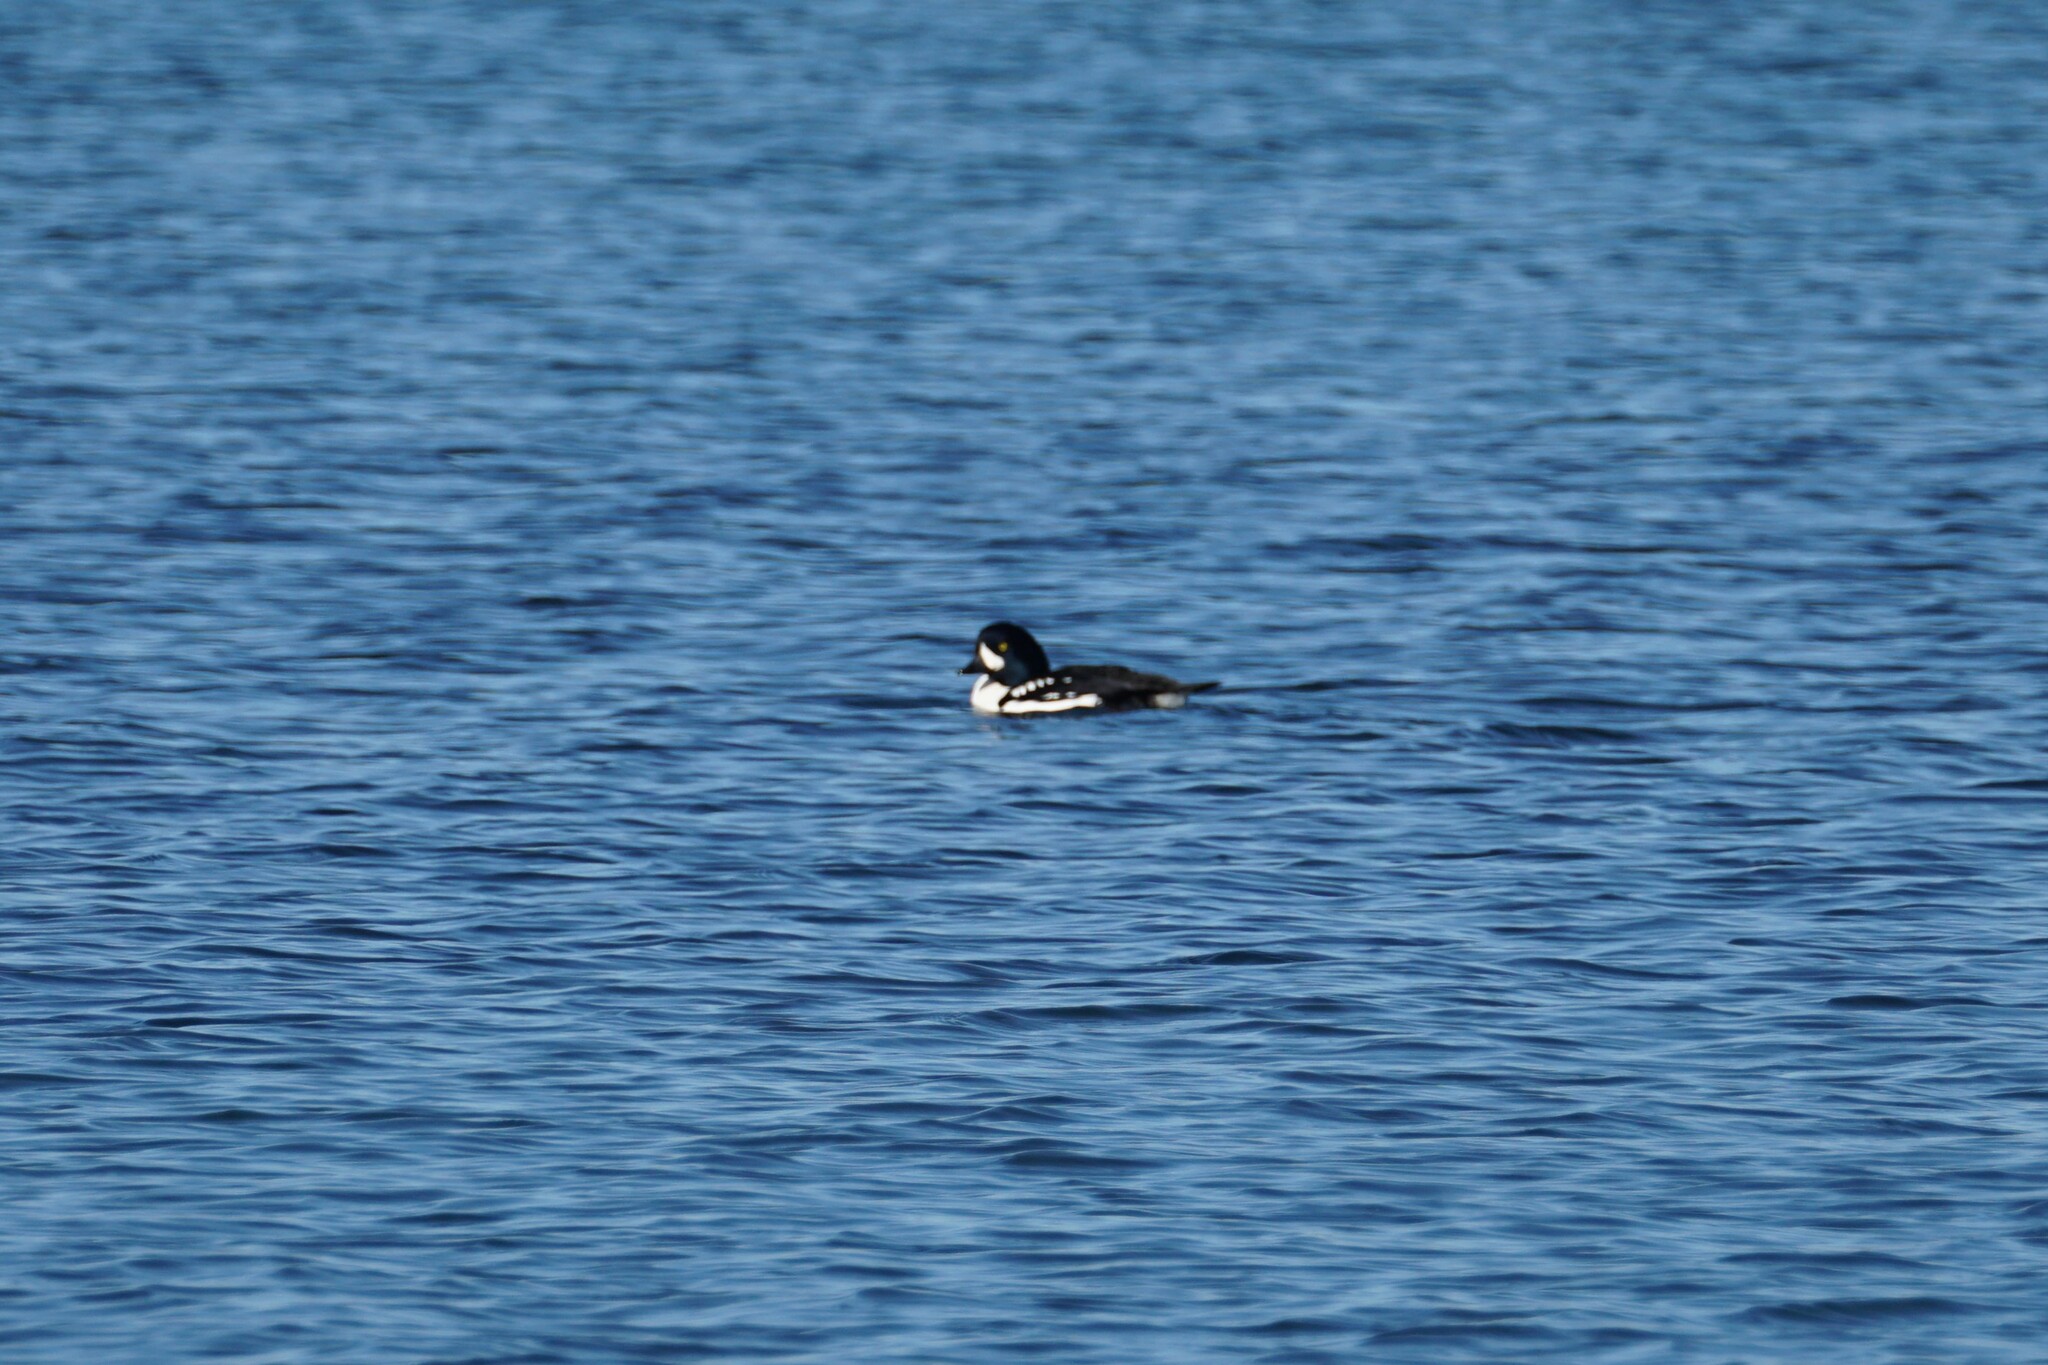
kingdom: Animalia
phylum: Chordata
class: Aves
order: Anseriformes
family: Anatidae
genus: Bucephala
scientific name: Bucephala islandica
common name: Barrow's goldeneye
